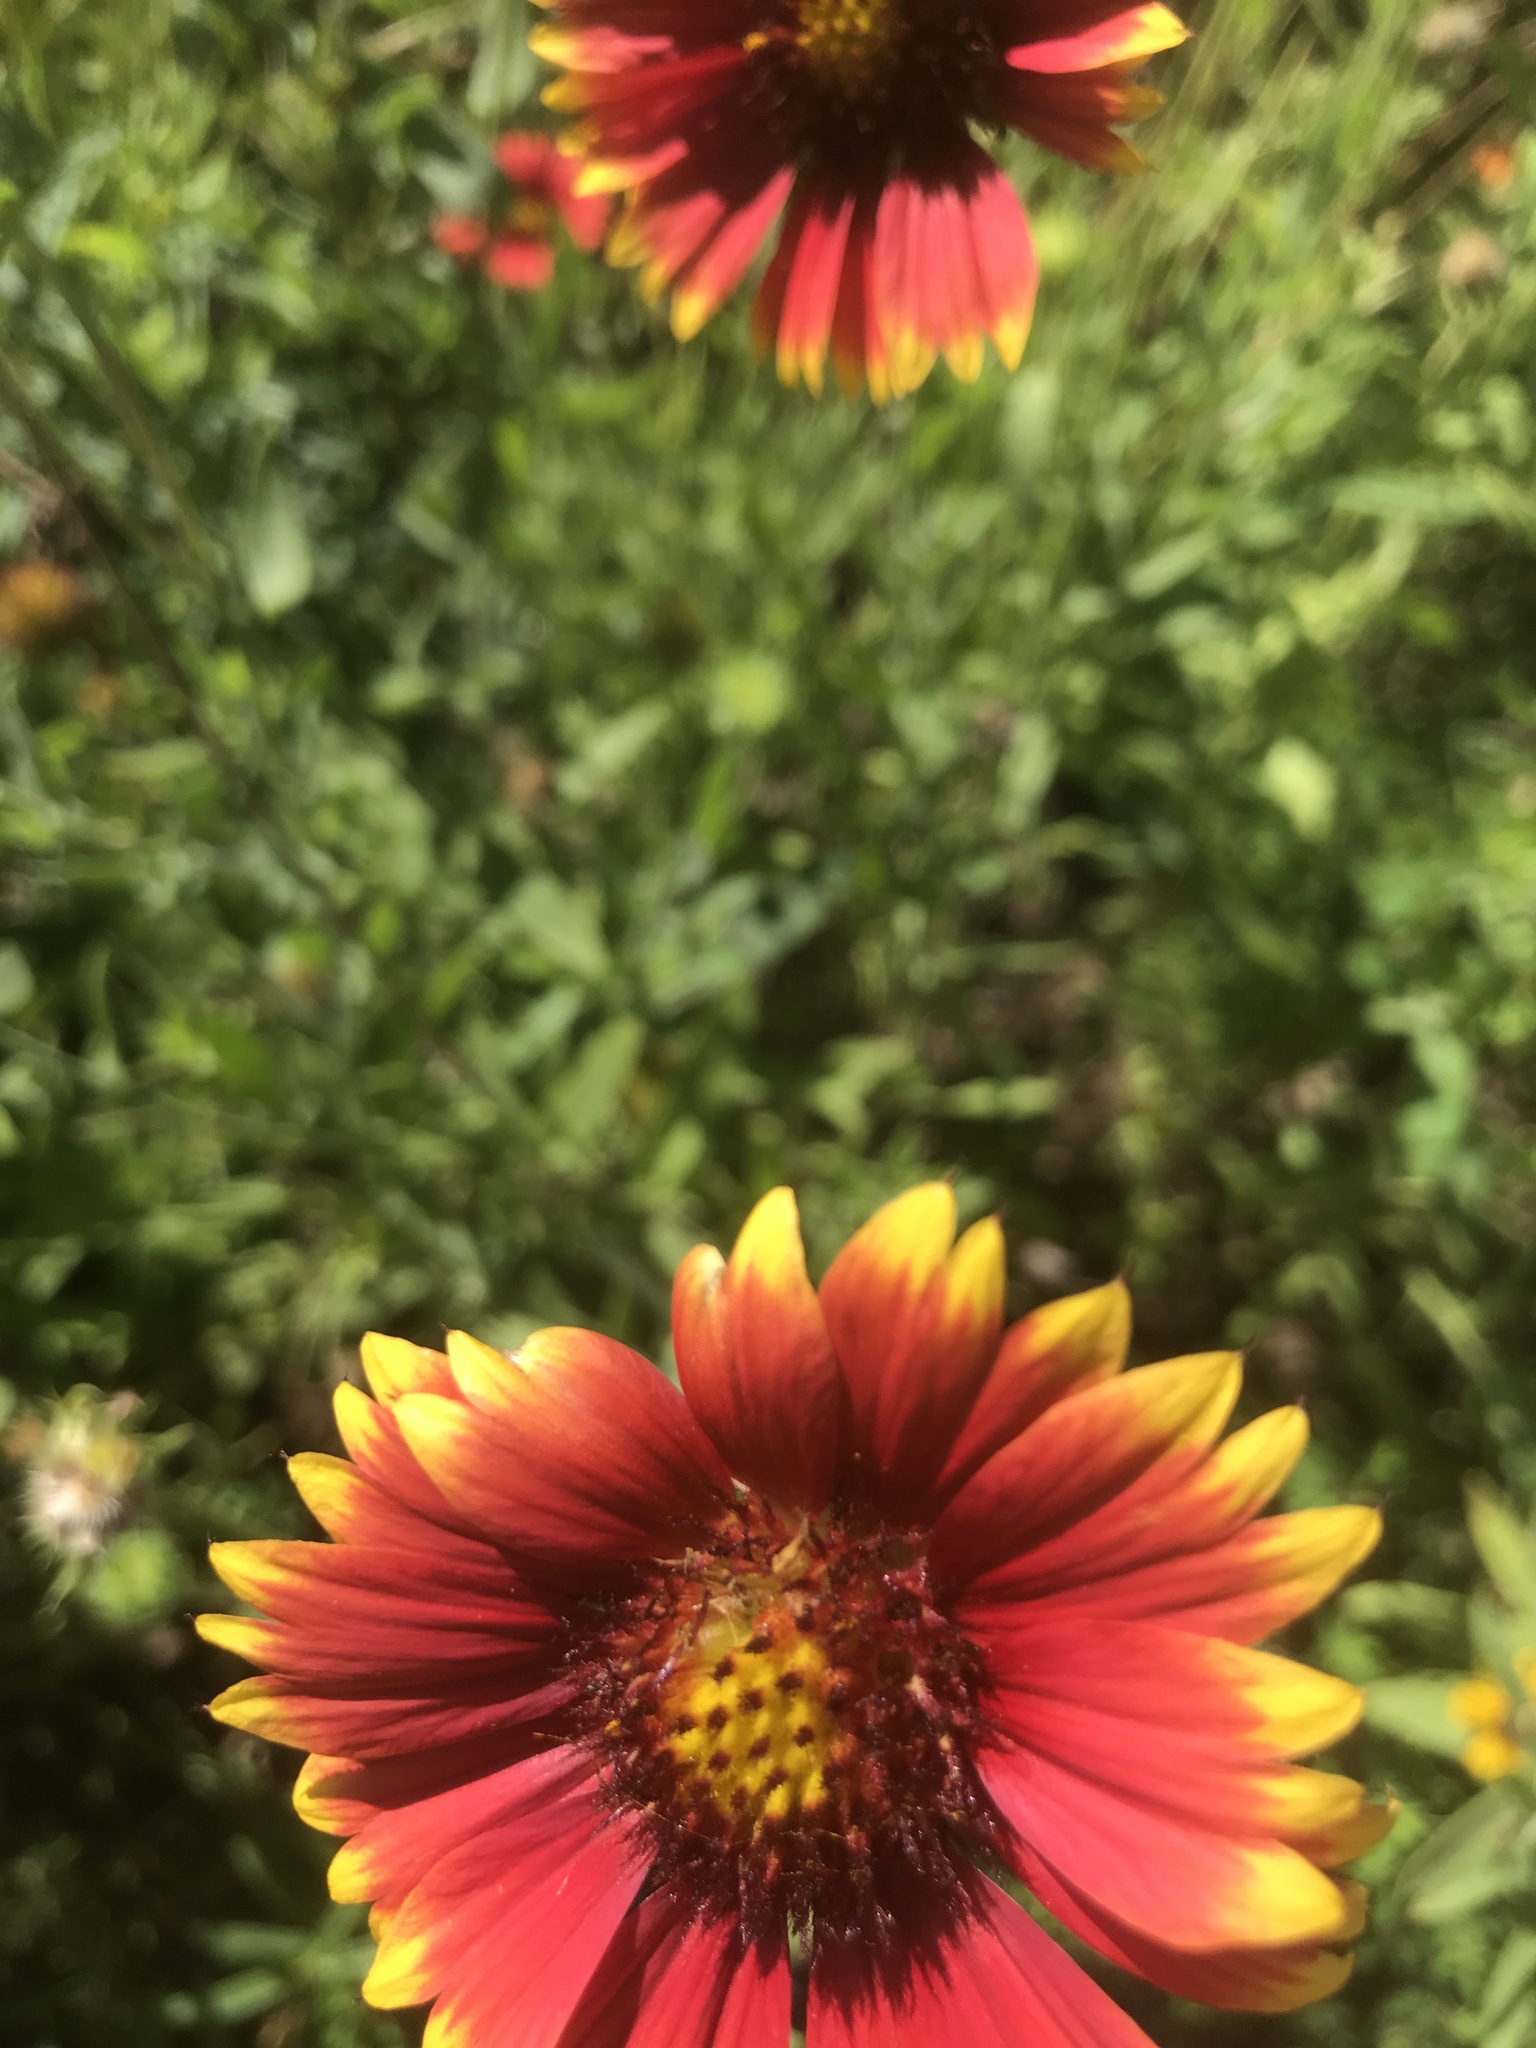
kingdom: Plantae
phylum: Tracheophyta
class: Magnoliopsida
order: Asterales
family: Asteraceae
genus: Gaillardia
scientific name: Gaillardia pulchella
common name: Firewheel
